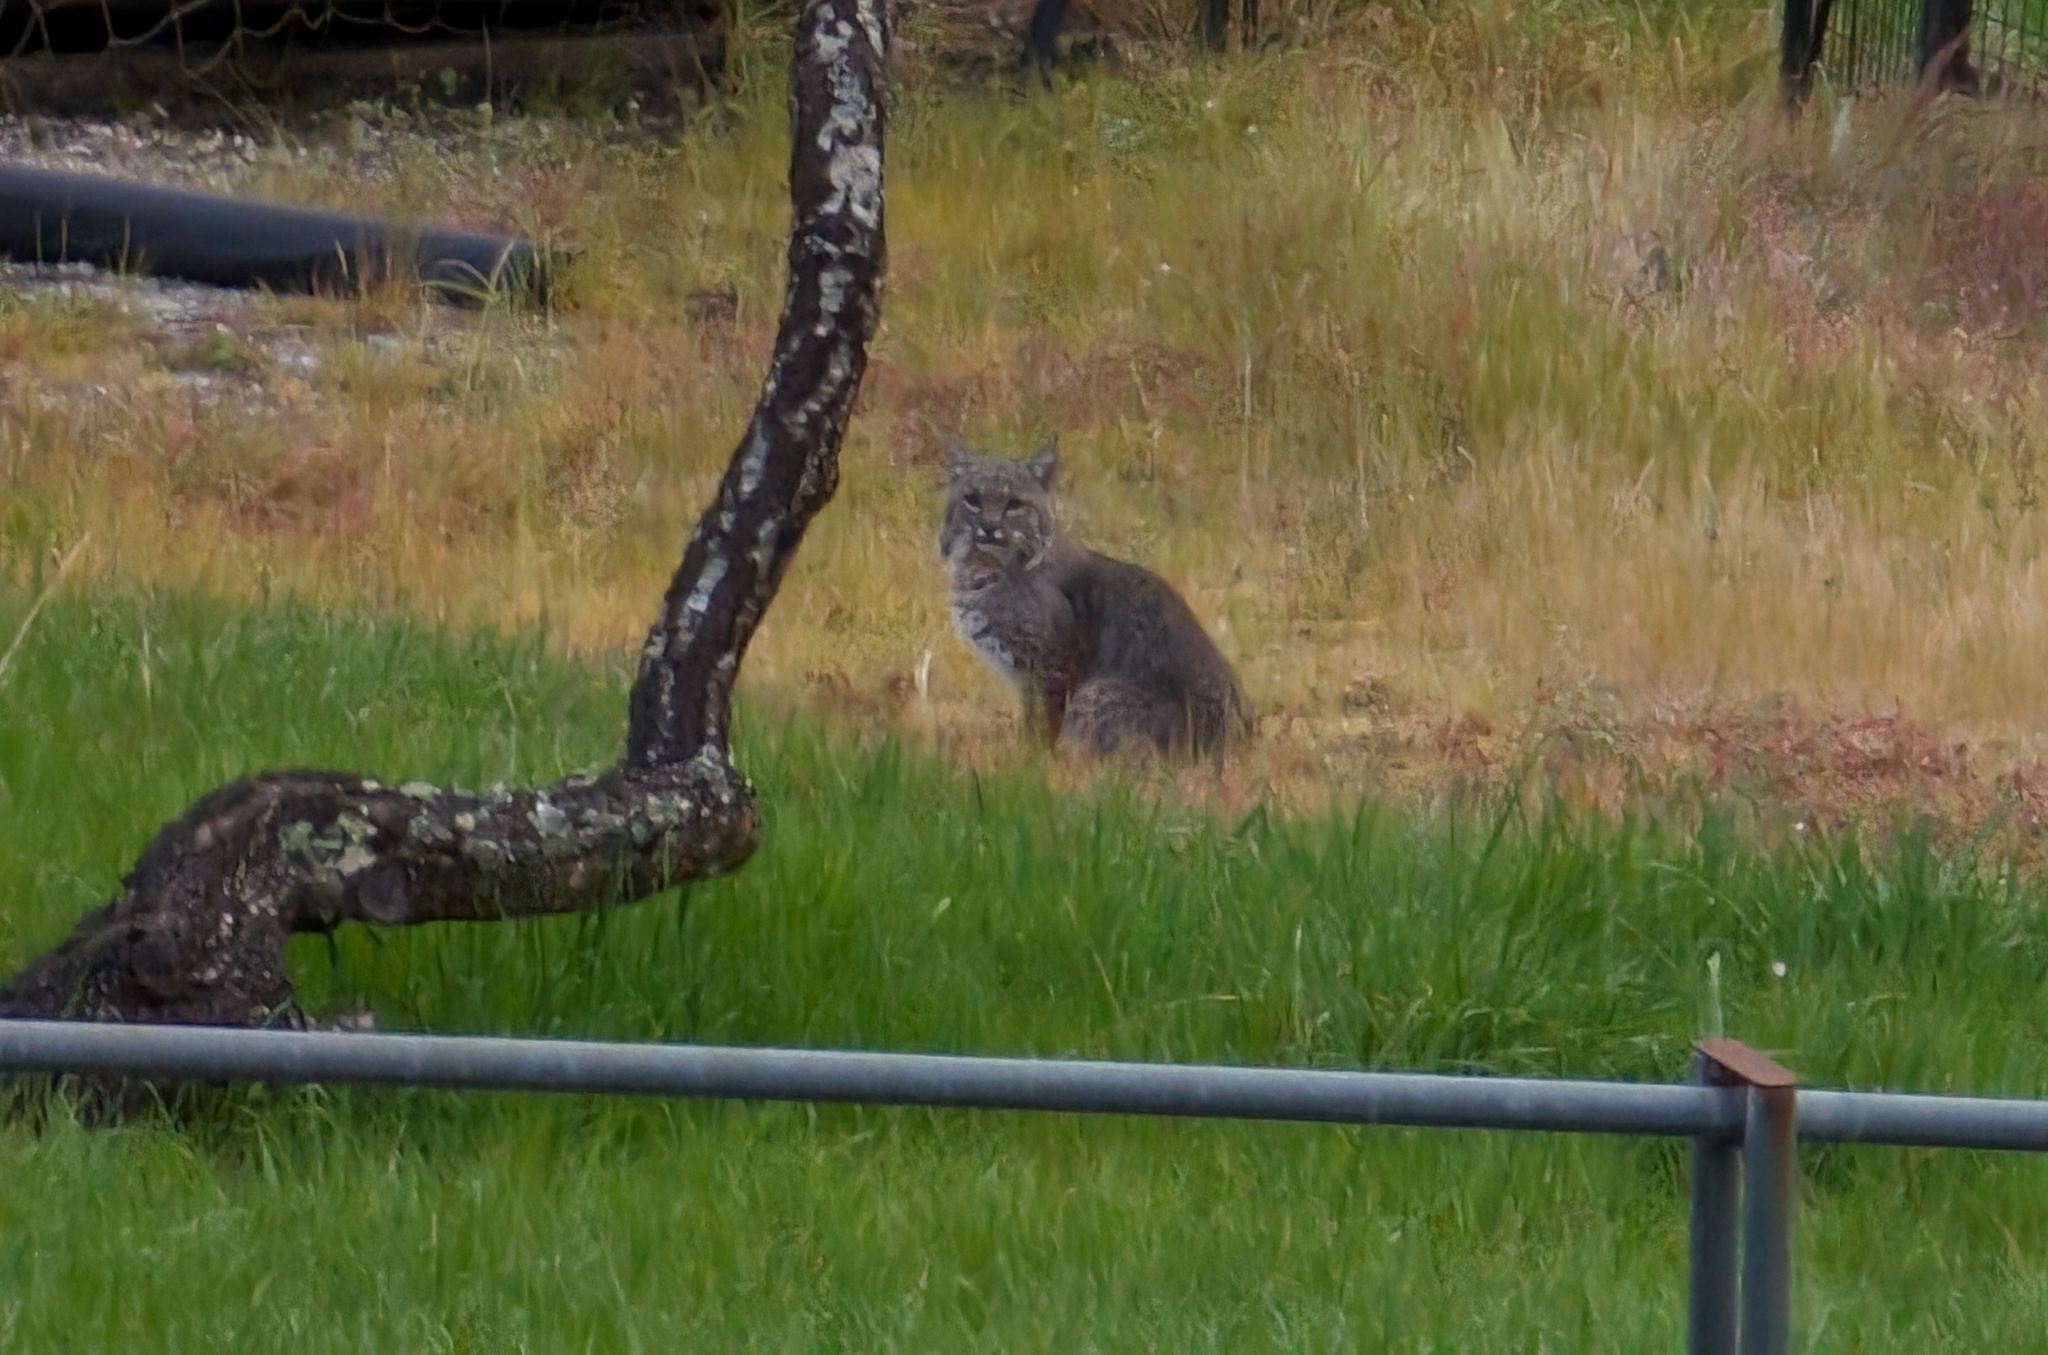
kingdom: Animalia
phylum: Chordata
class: Mammalia
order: Carnivora
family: Felidae
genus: Lynx
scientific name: Lynx rufus
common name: Bobcat
